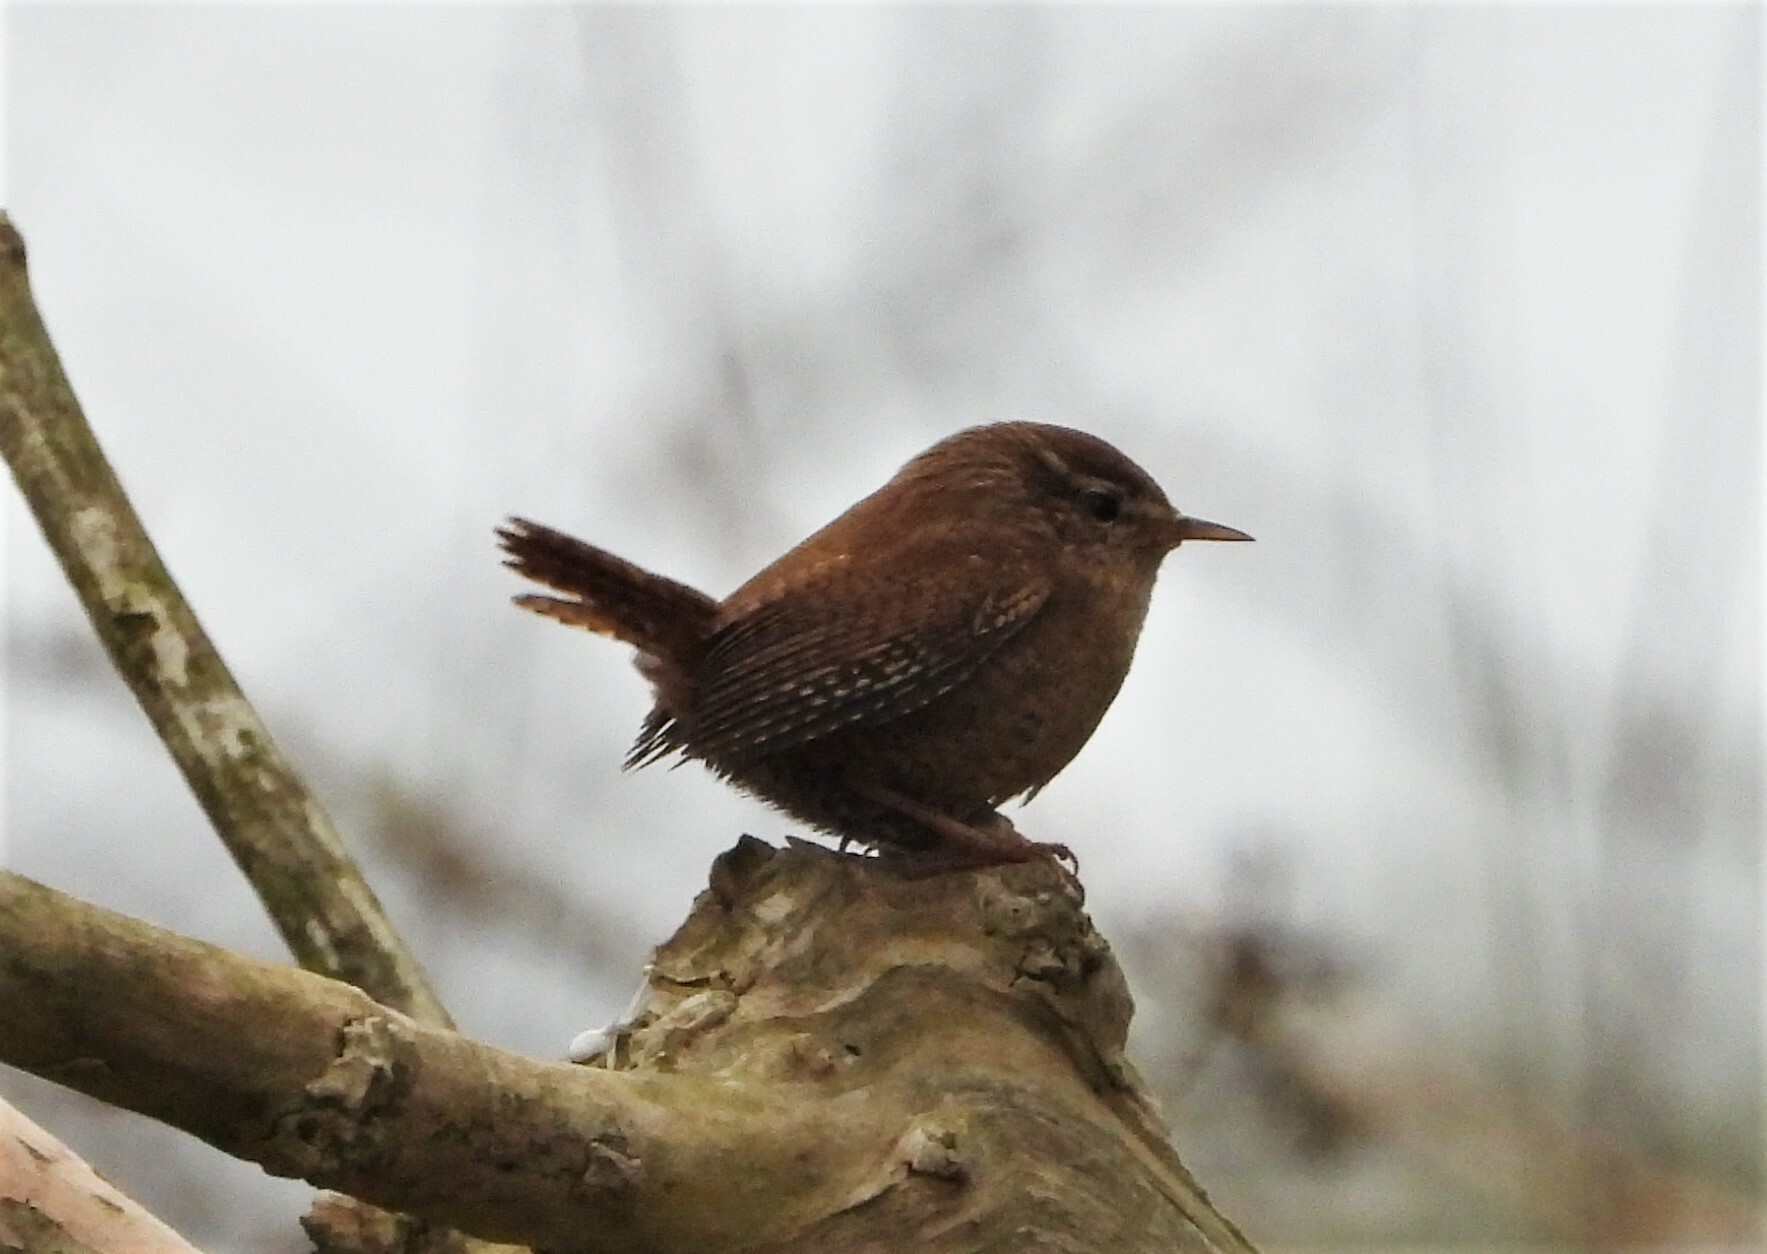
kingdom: Animalia
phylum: Chordata
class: Aves
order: Passeriformes
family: Troglodytidae
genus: Troglodytes
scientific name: Troglodytes troglodytes
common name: Eurasian wren
